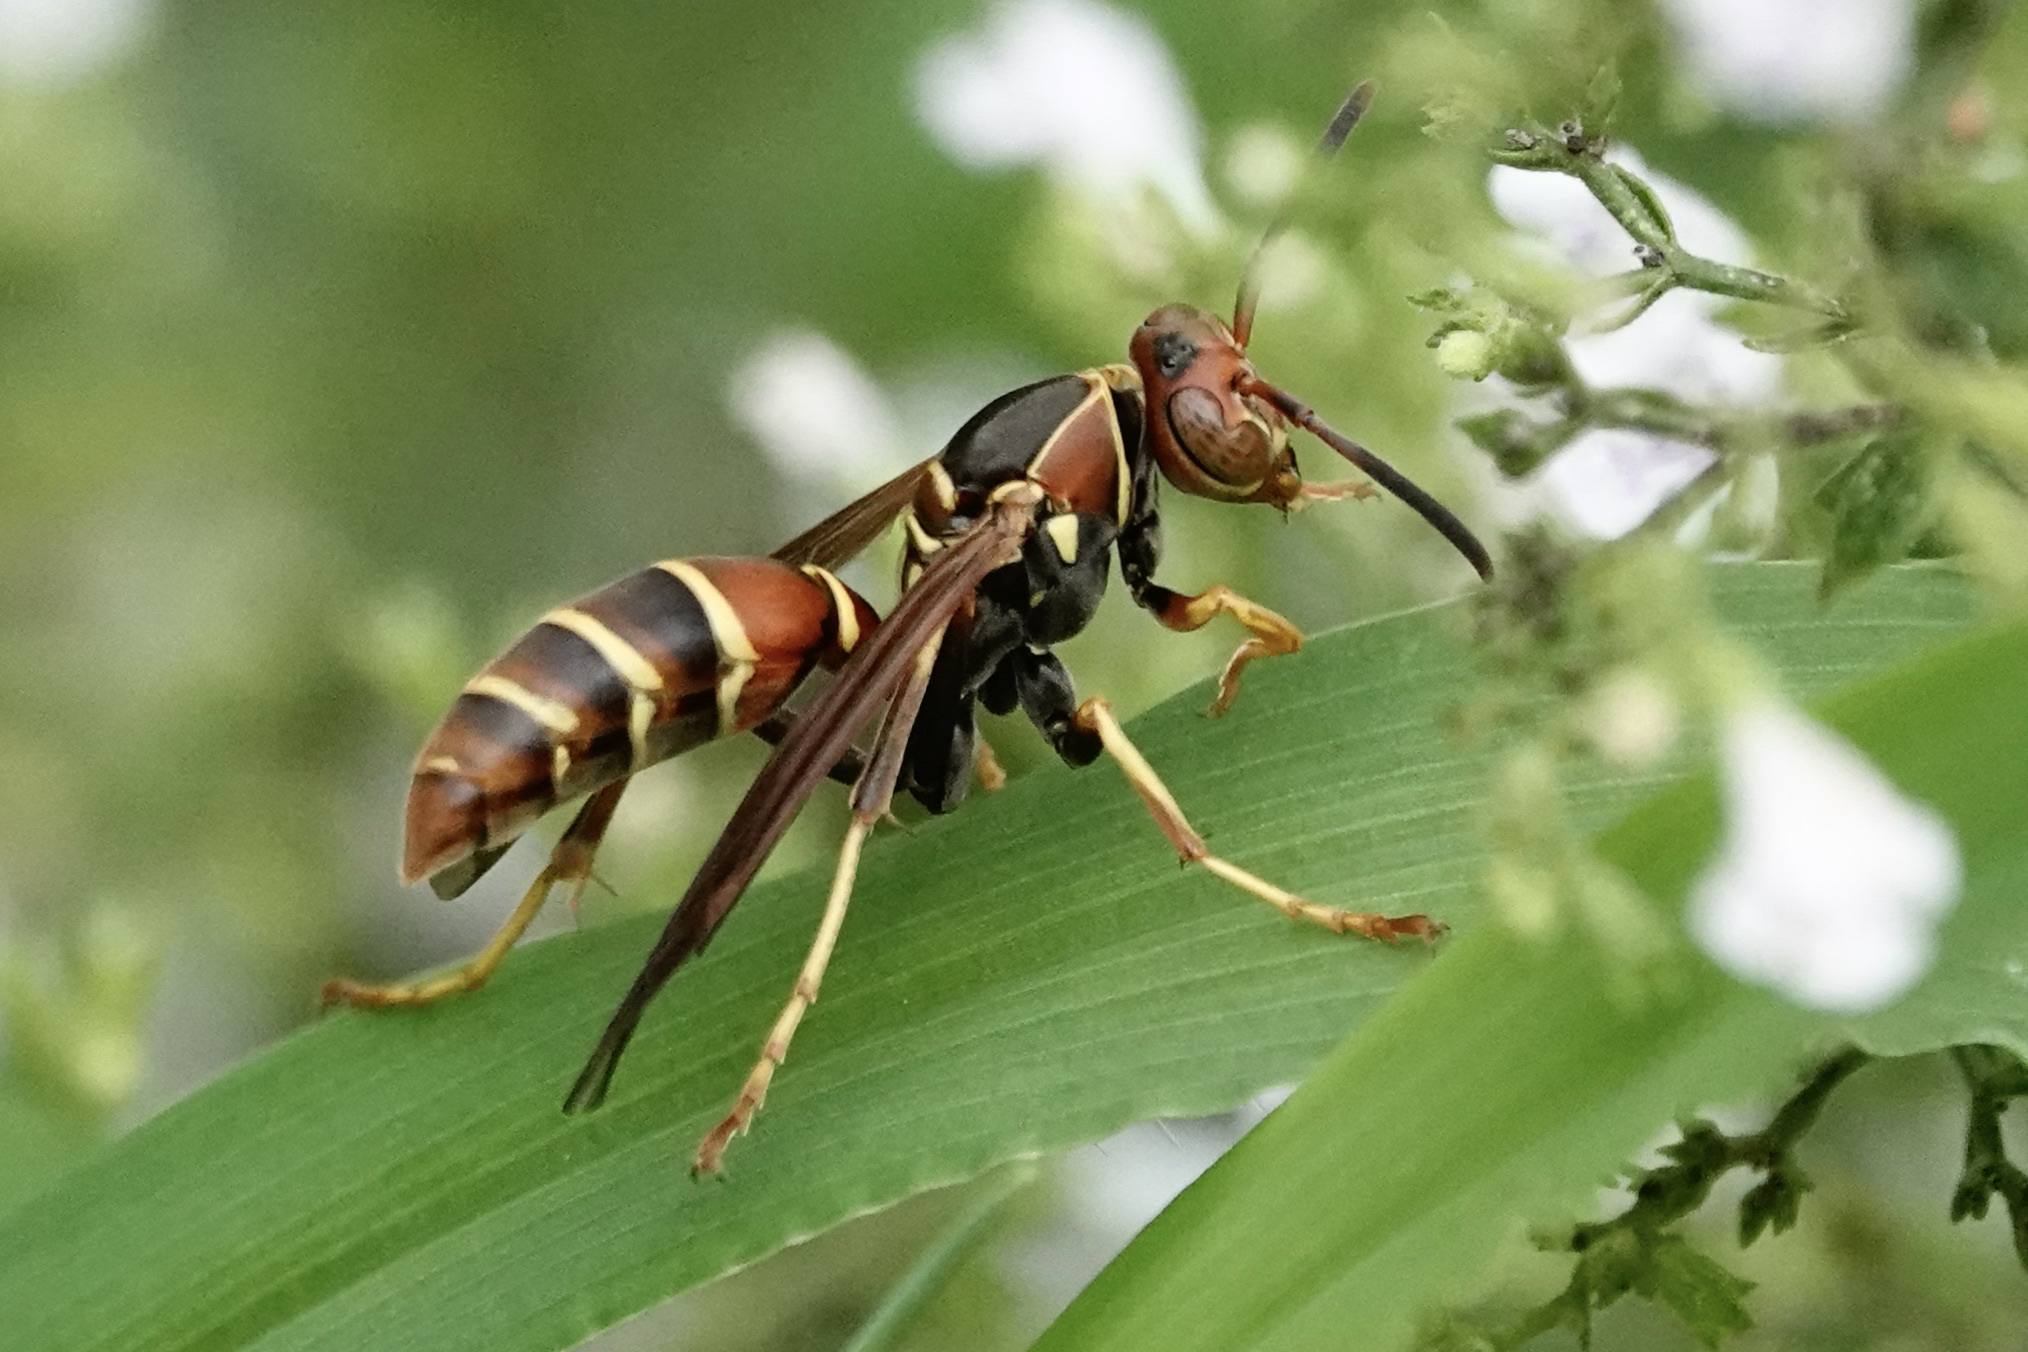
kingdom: Animalia
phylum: Arthropoda
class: Insecta
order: Hymenoptera
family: Eumenidae
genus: Polistes
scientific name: Polistes dorsalis
